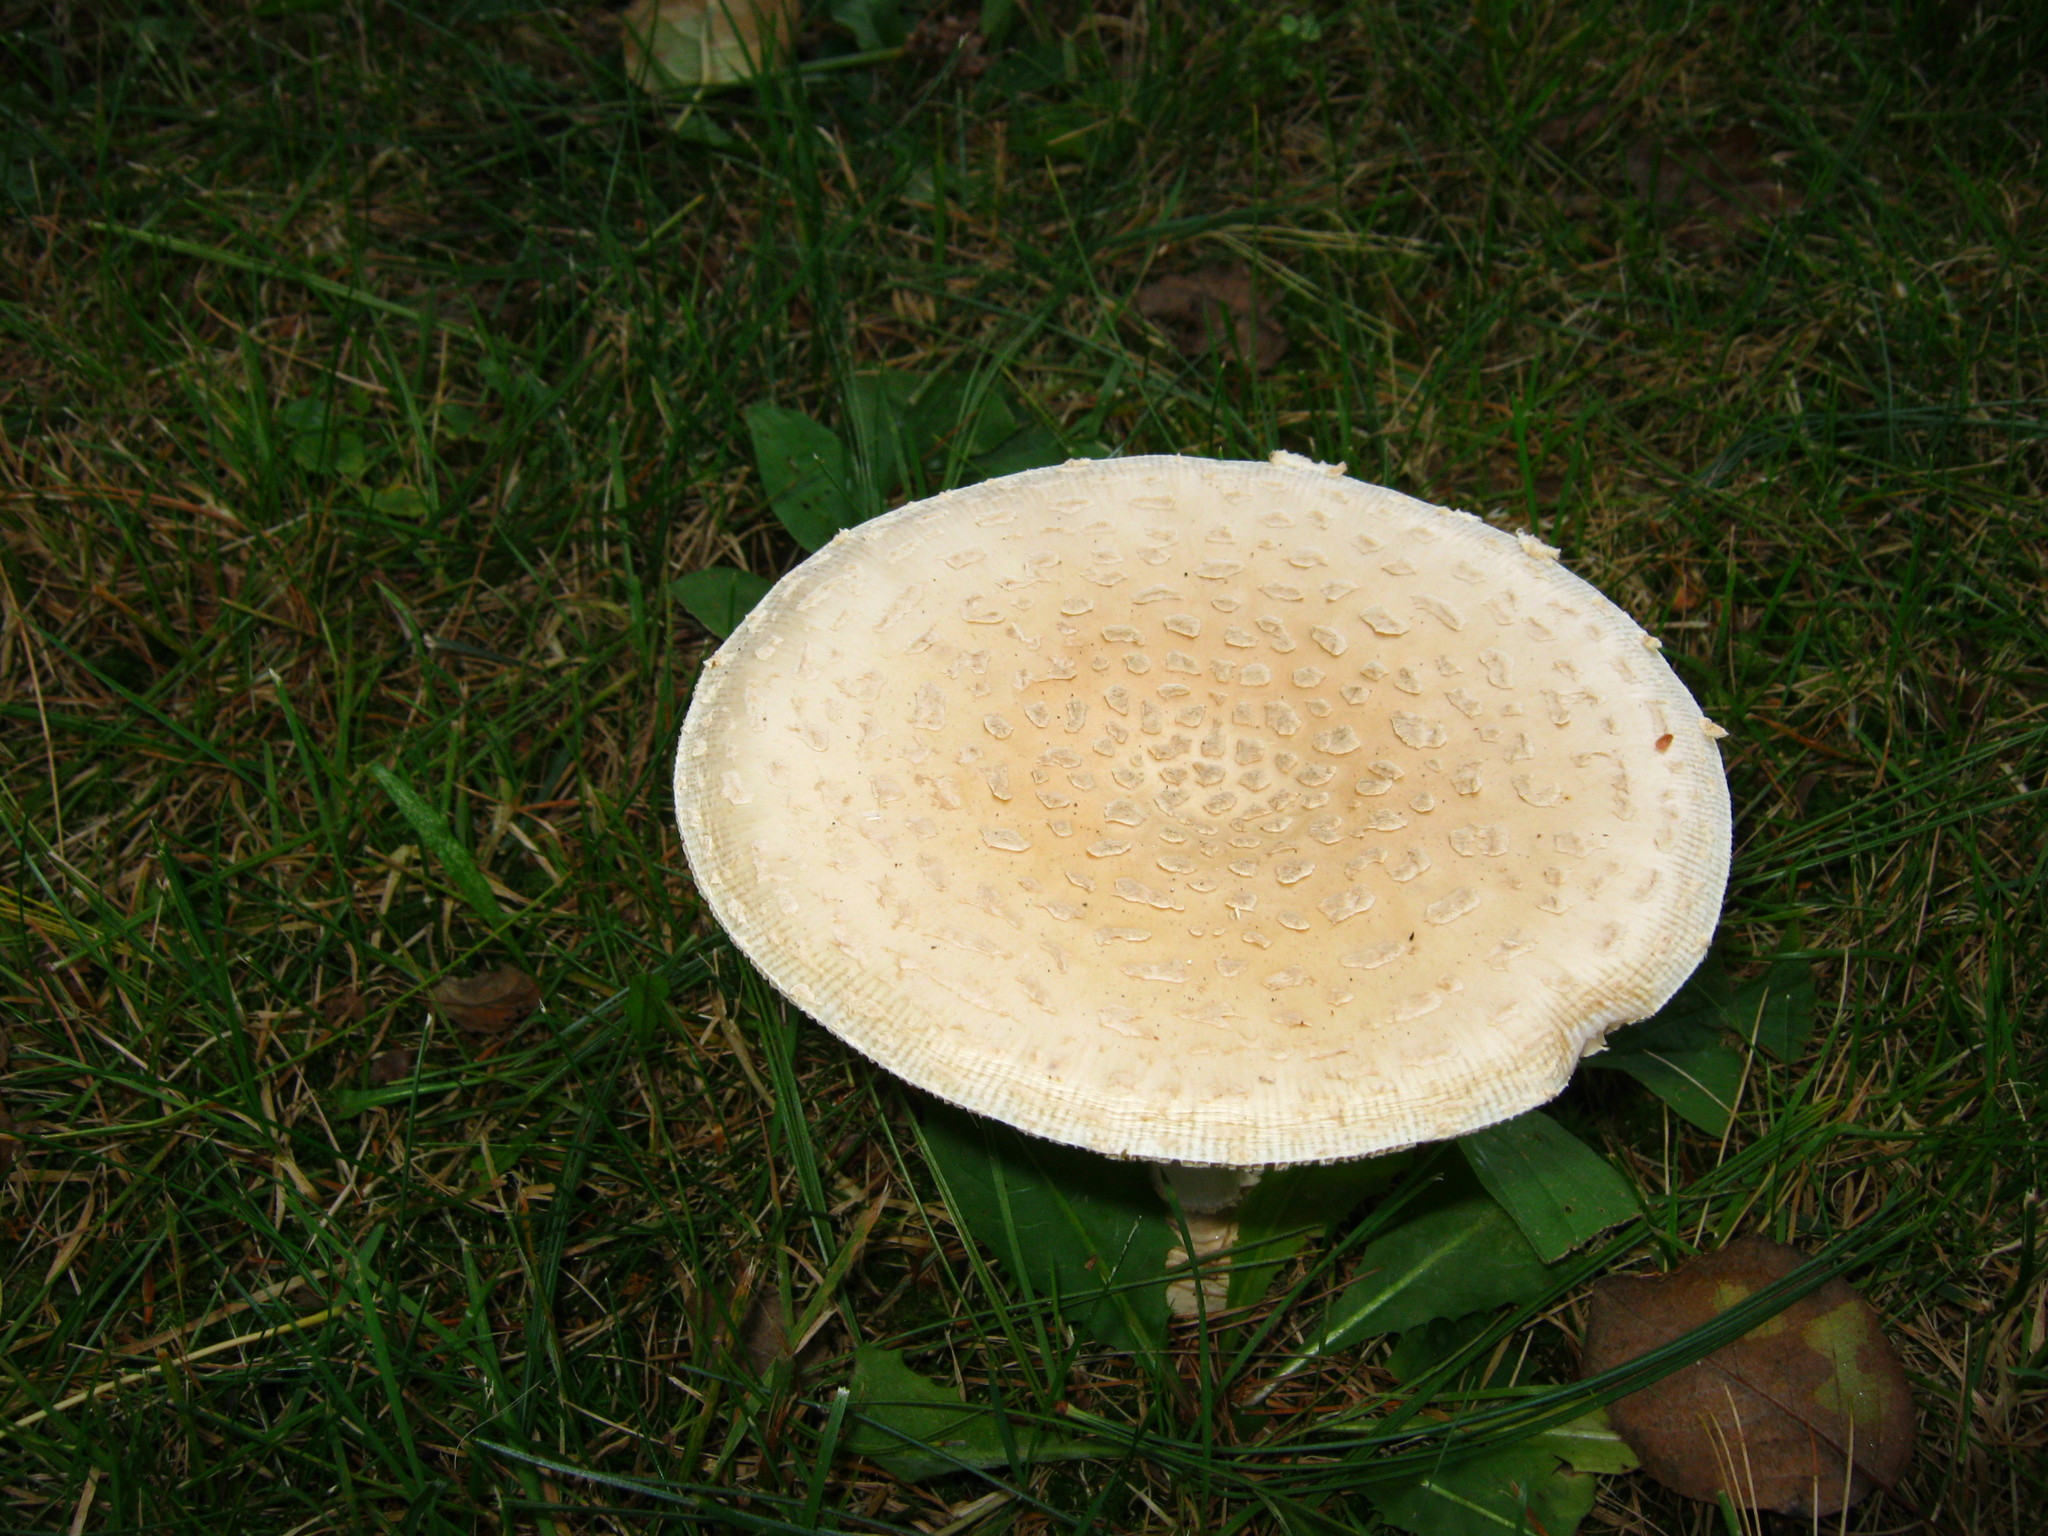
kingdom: Fungi
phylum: Basidiomycota
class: Agaricomycetes
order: Agaricales
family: Amanitaceae
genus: Amanita
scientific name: Amanita muscaria
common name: Fly agaric
